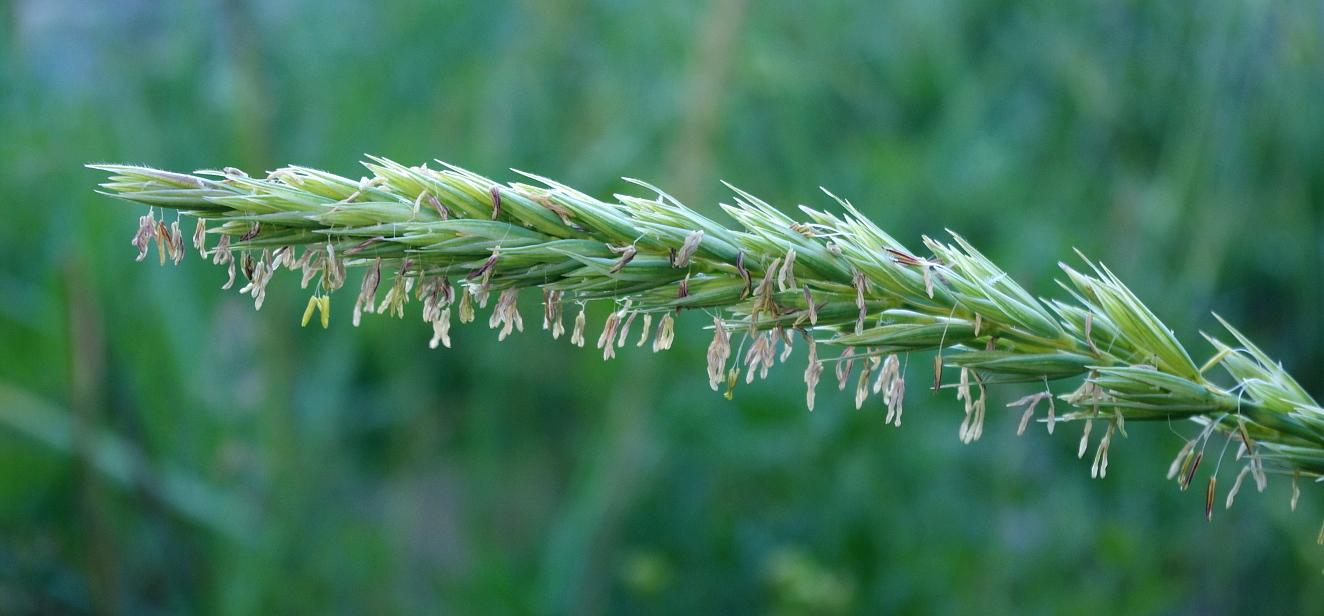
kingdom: Plantae
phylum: Tracheophyta
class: Liliopsida
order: Poales
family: Poaceae
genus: Leymus
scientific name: Leymus arenarius
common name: Lyme-grass
